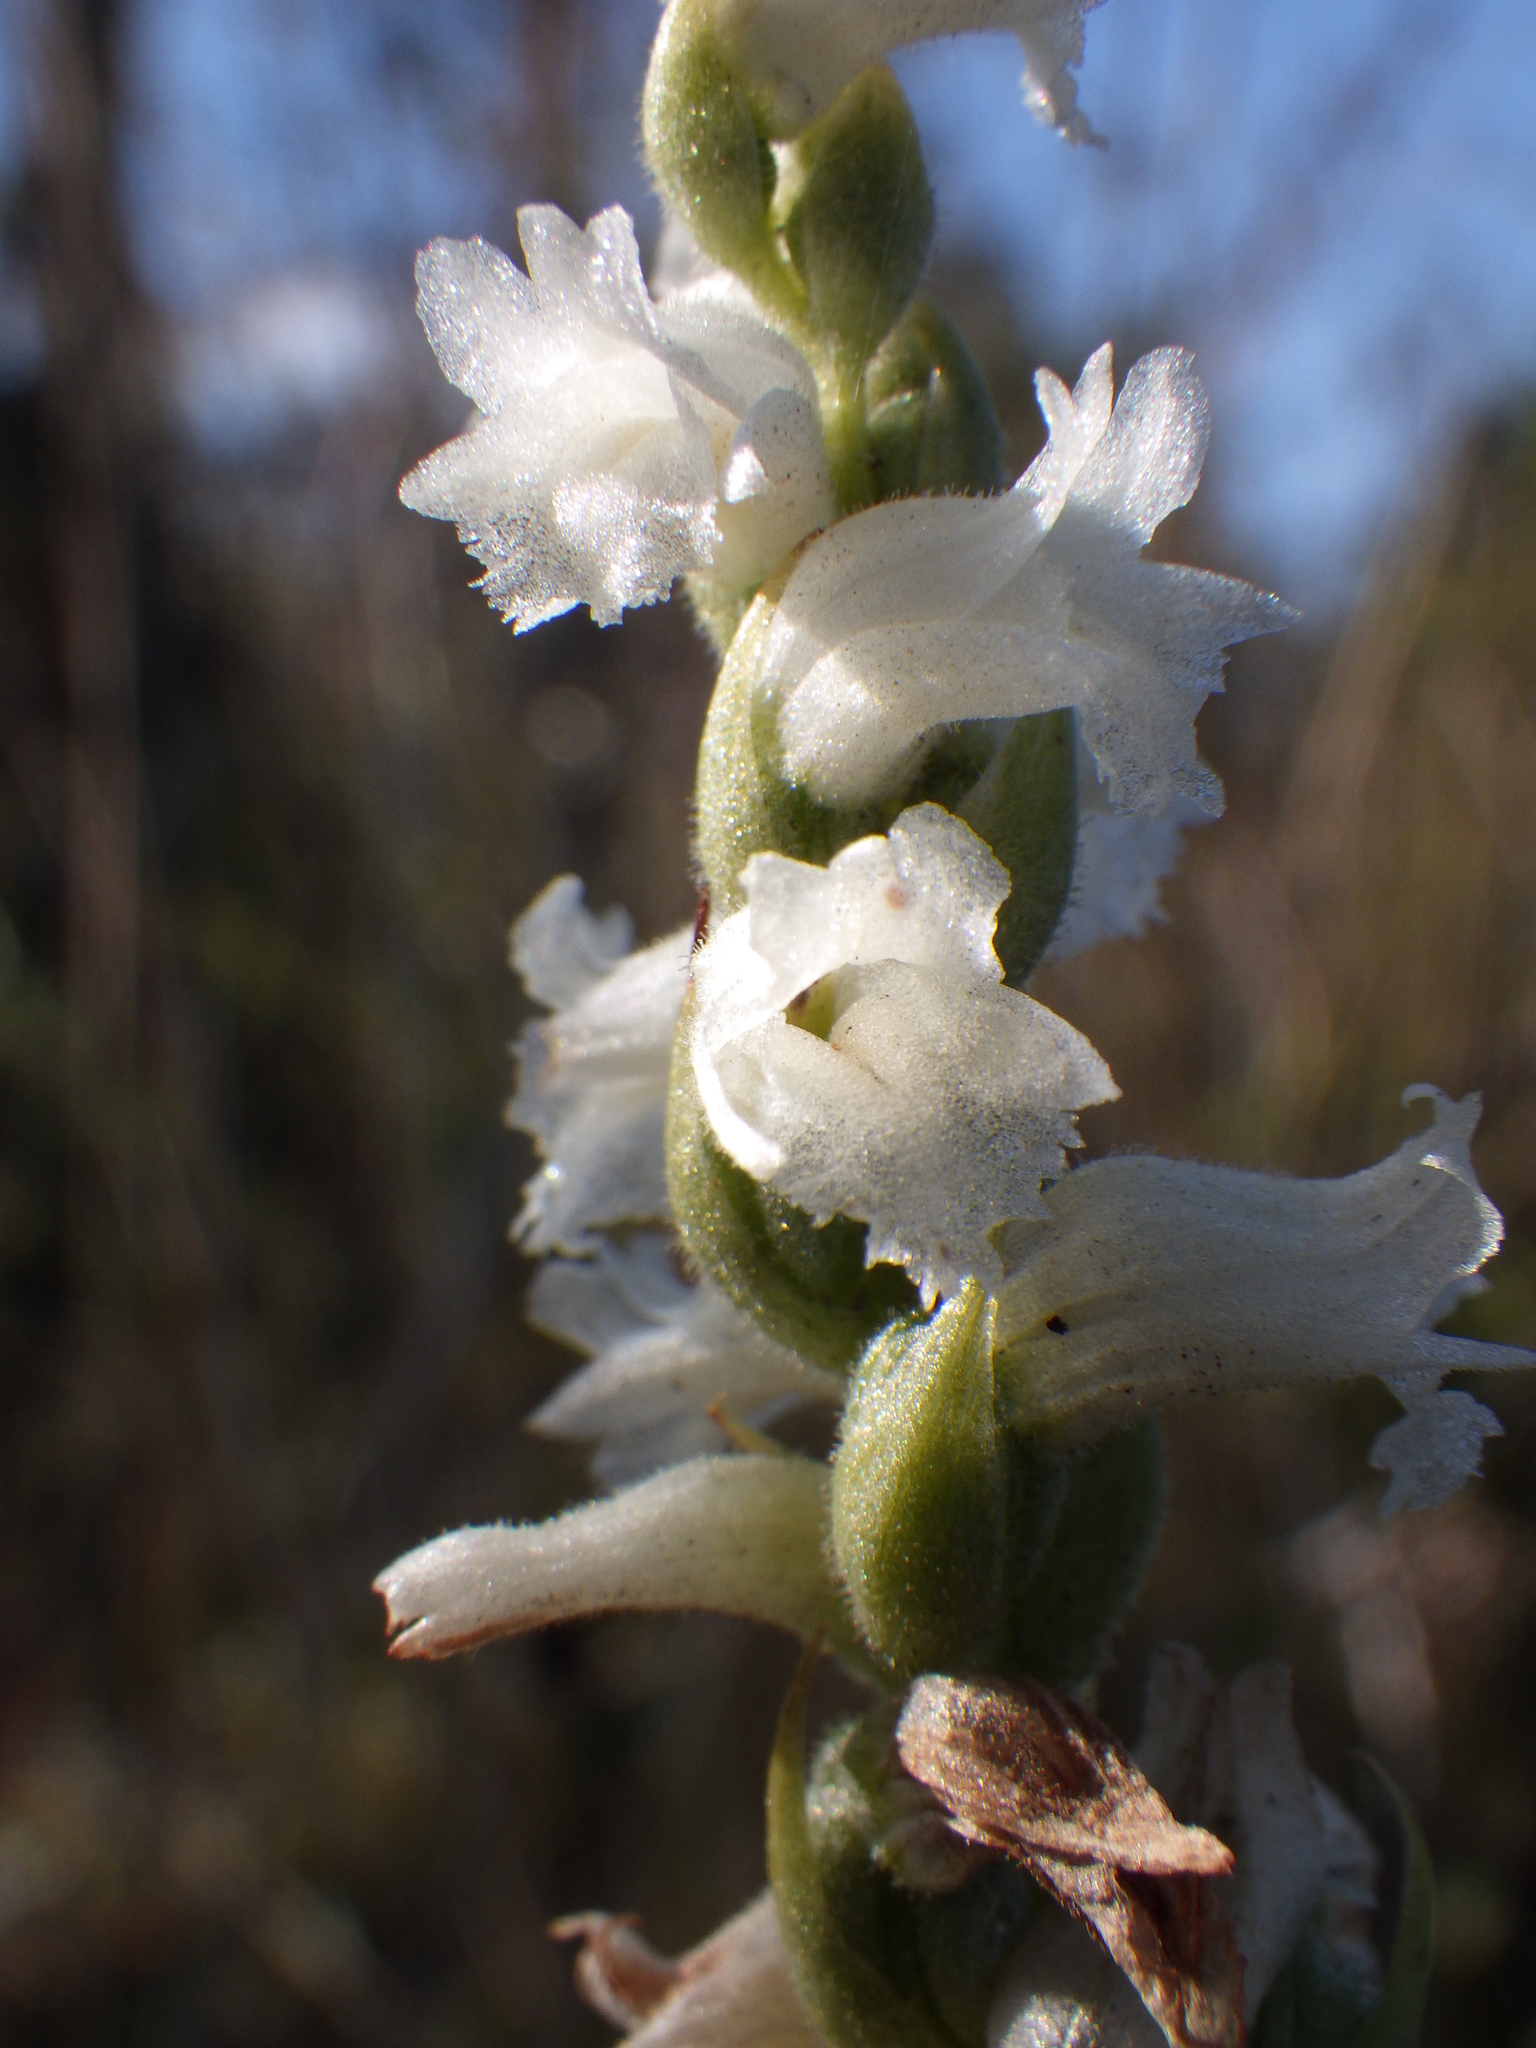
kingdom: Plantae
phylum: Tracheophyta
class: Liliopsida
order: Asparagales
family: Orchidaceae
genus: Spiranthes
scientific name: Spiranthes arcisepala
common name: Appalachian ladies'-tresses
